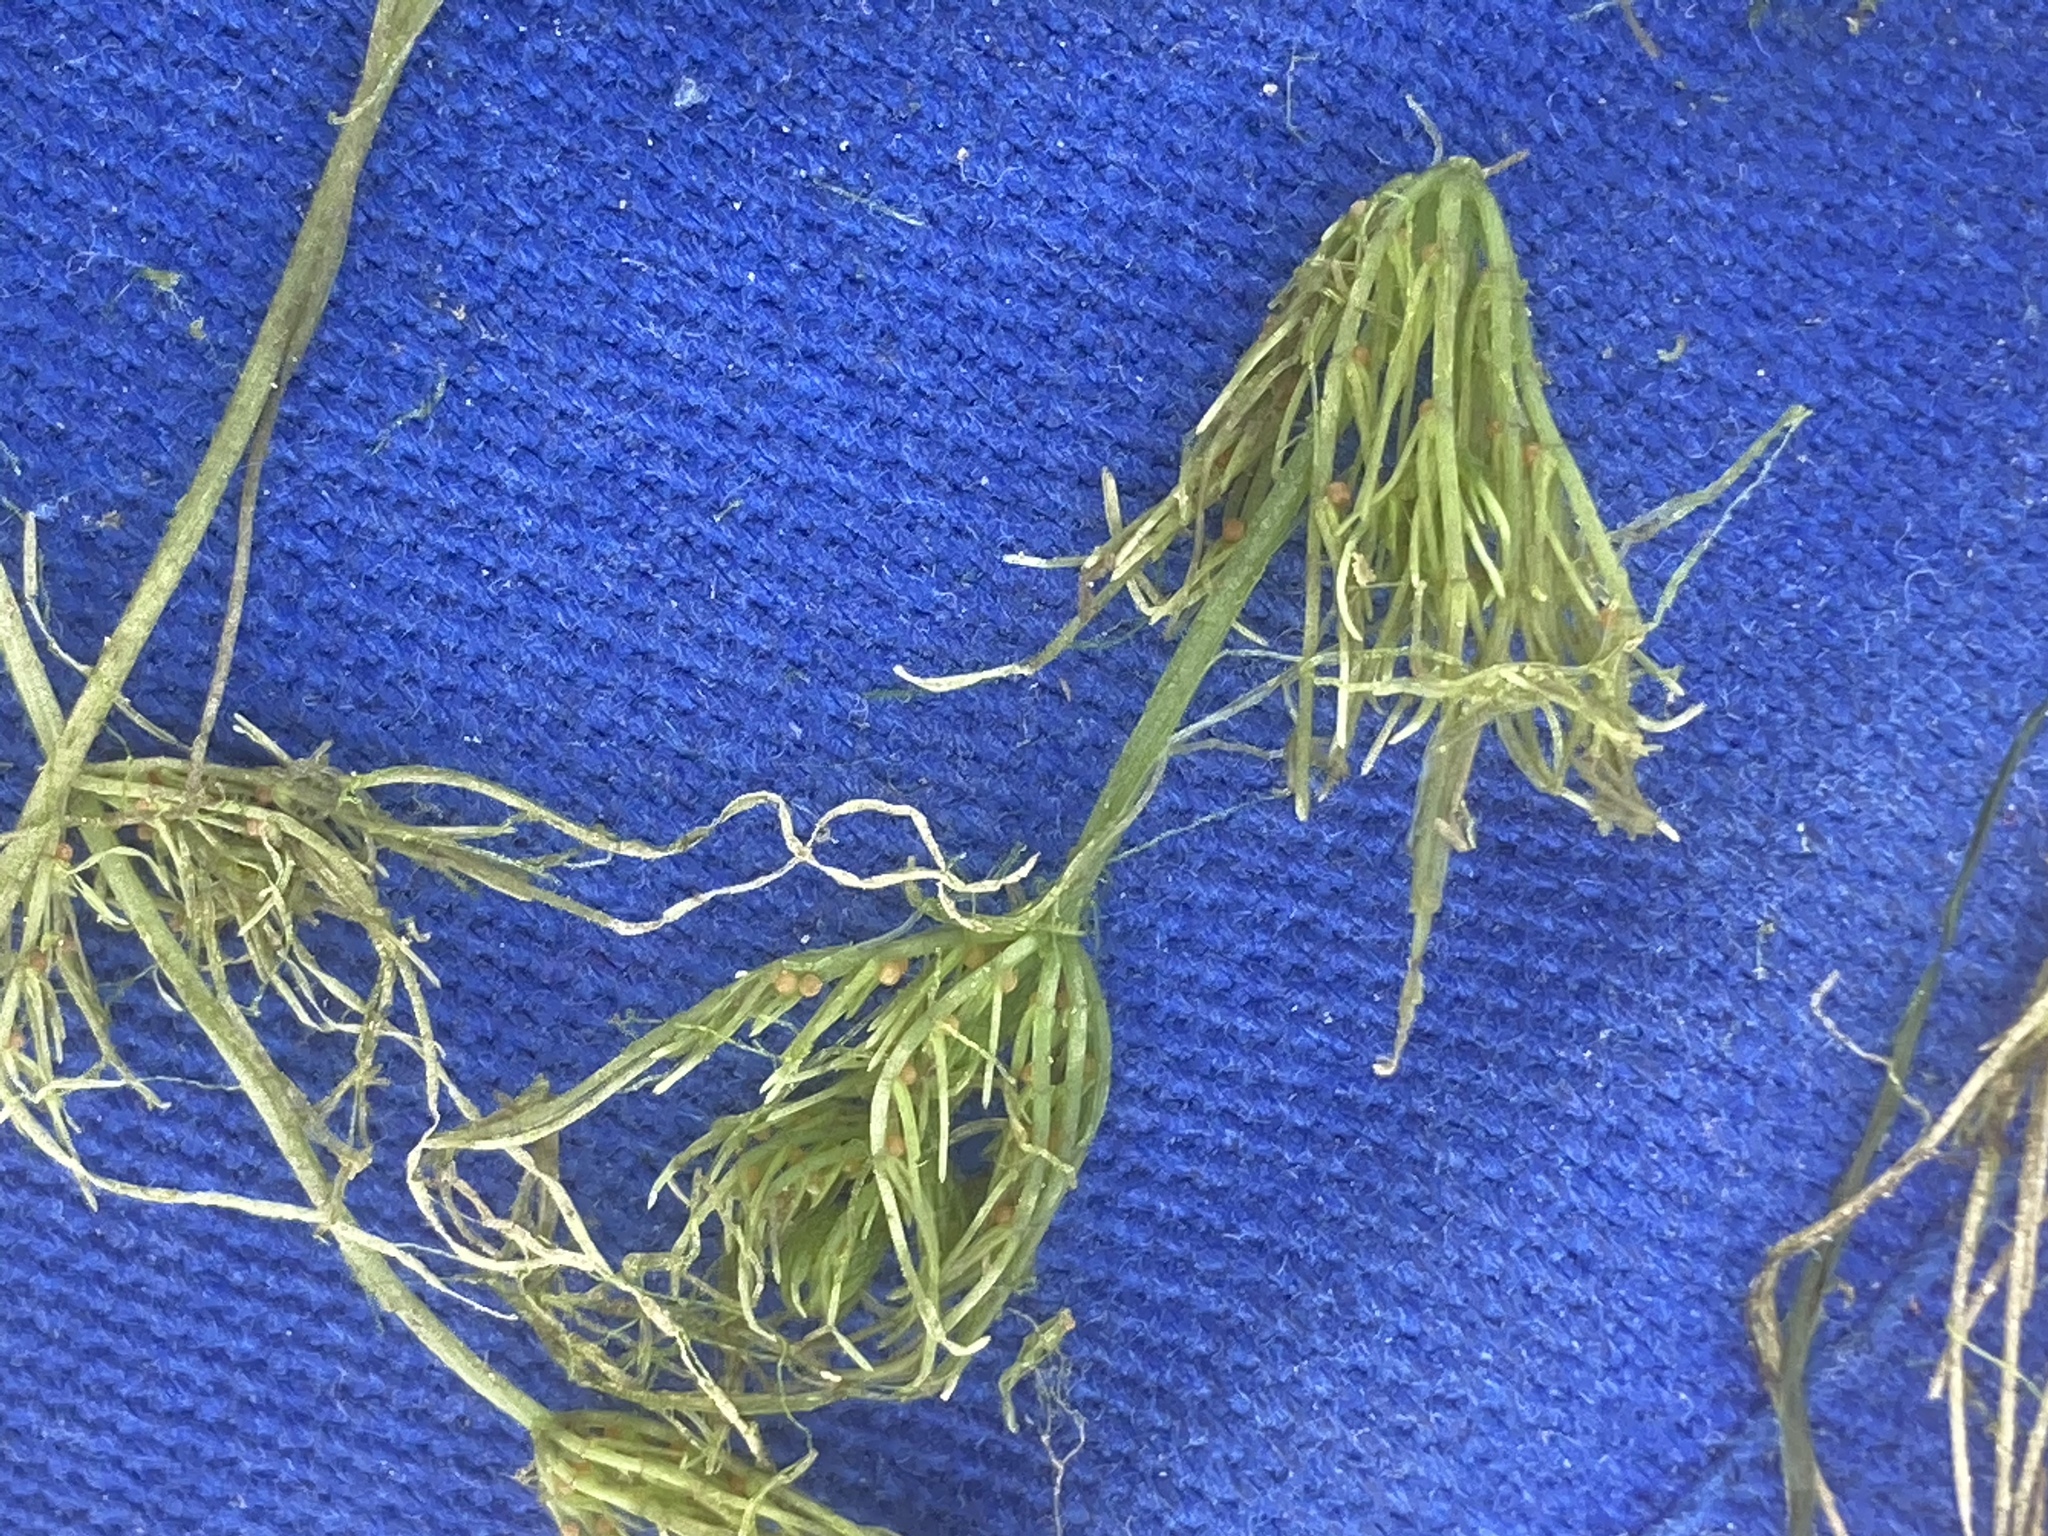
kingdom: Plantae
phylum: Charophyta
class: Charophyceae
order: Charales
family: Characeae
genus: Chara
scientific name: Chara vulgaris
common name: Common stonewort
